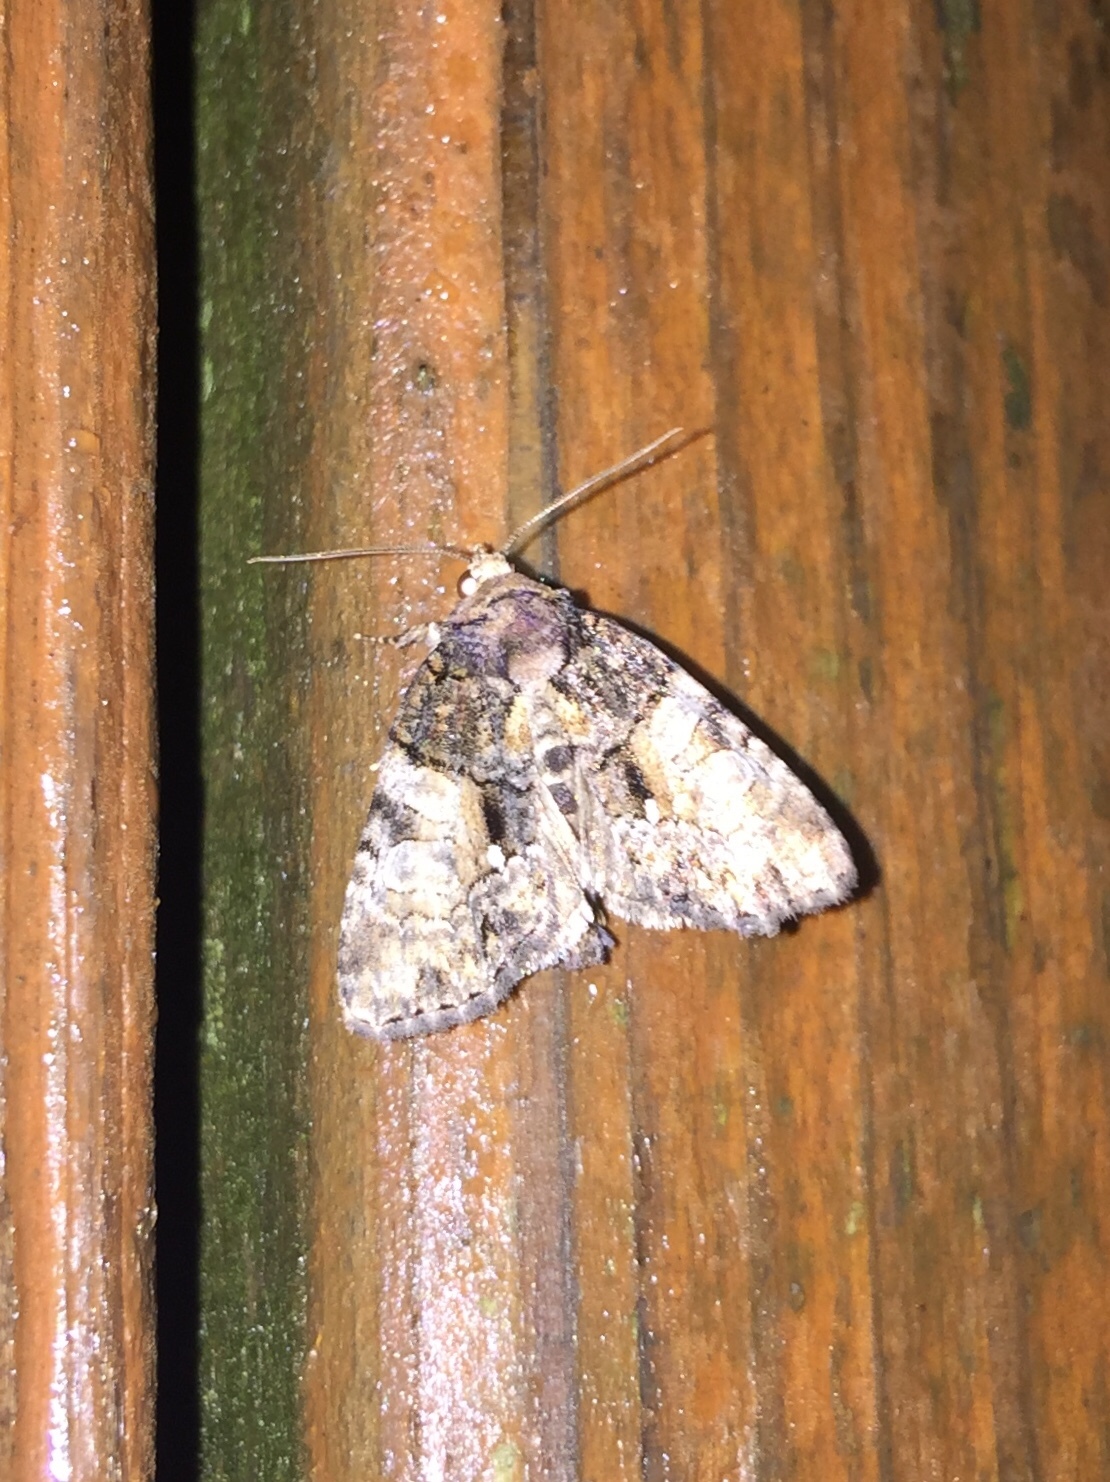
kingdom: Animalia
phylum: Arthropoda
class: Insecta
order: Lepidoptera
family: Noctuidae
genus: Chytonix
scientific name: Chytonix palliatricula
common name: Cloaked marvel
